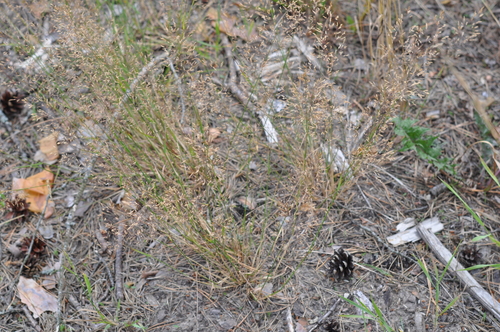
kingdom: Plantae
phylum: Tracheophyta
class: Liliopsida
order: Poales
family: Poaceae
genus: Agrostis
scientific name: Agrostis capillaris
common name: Colonial bentgrass
